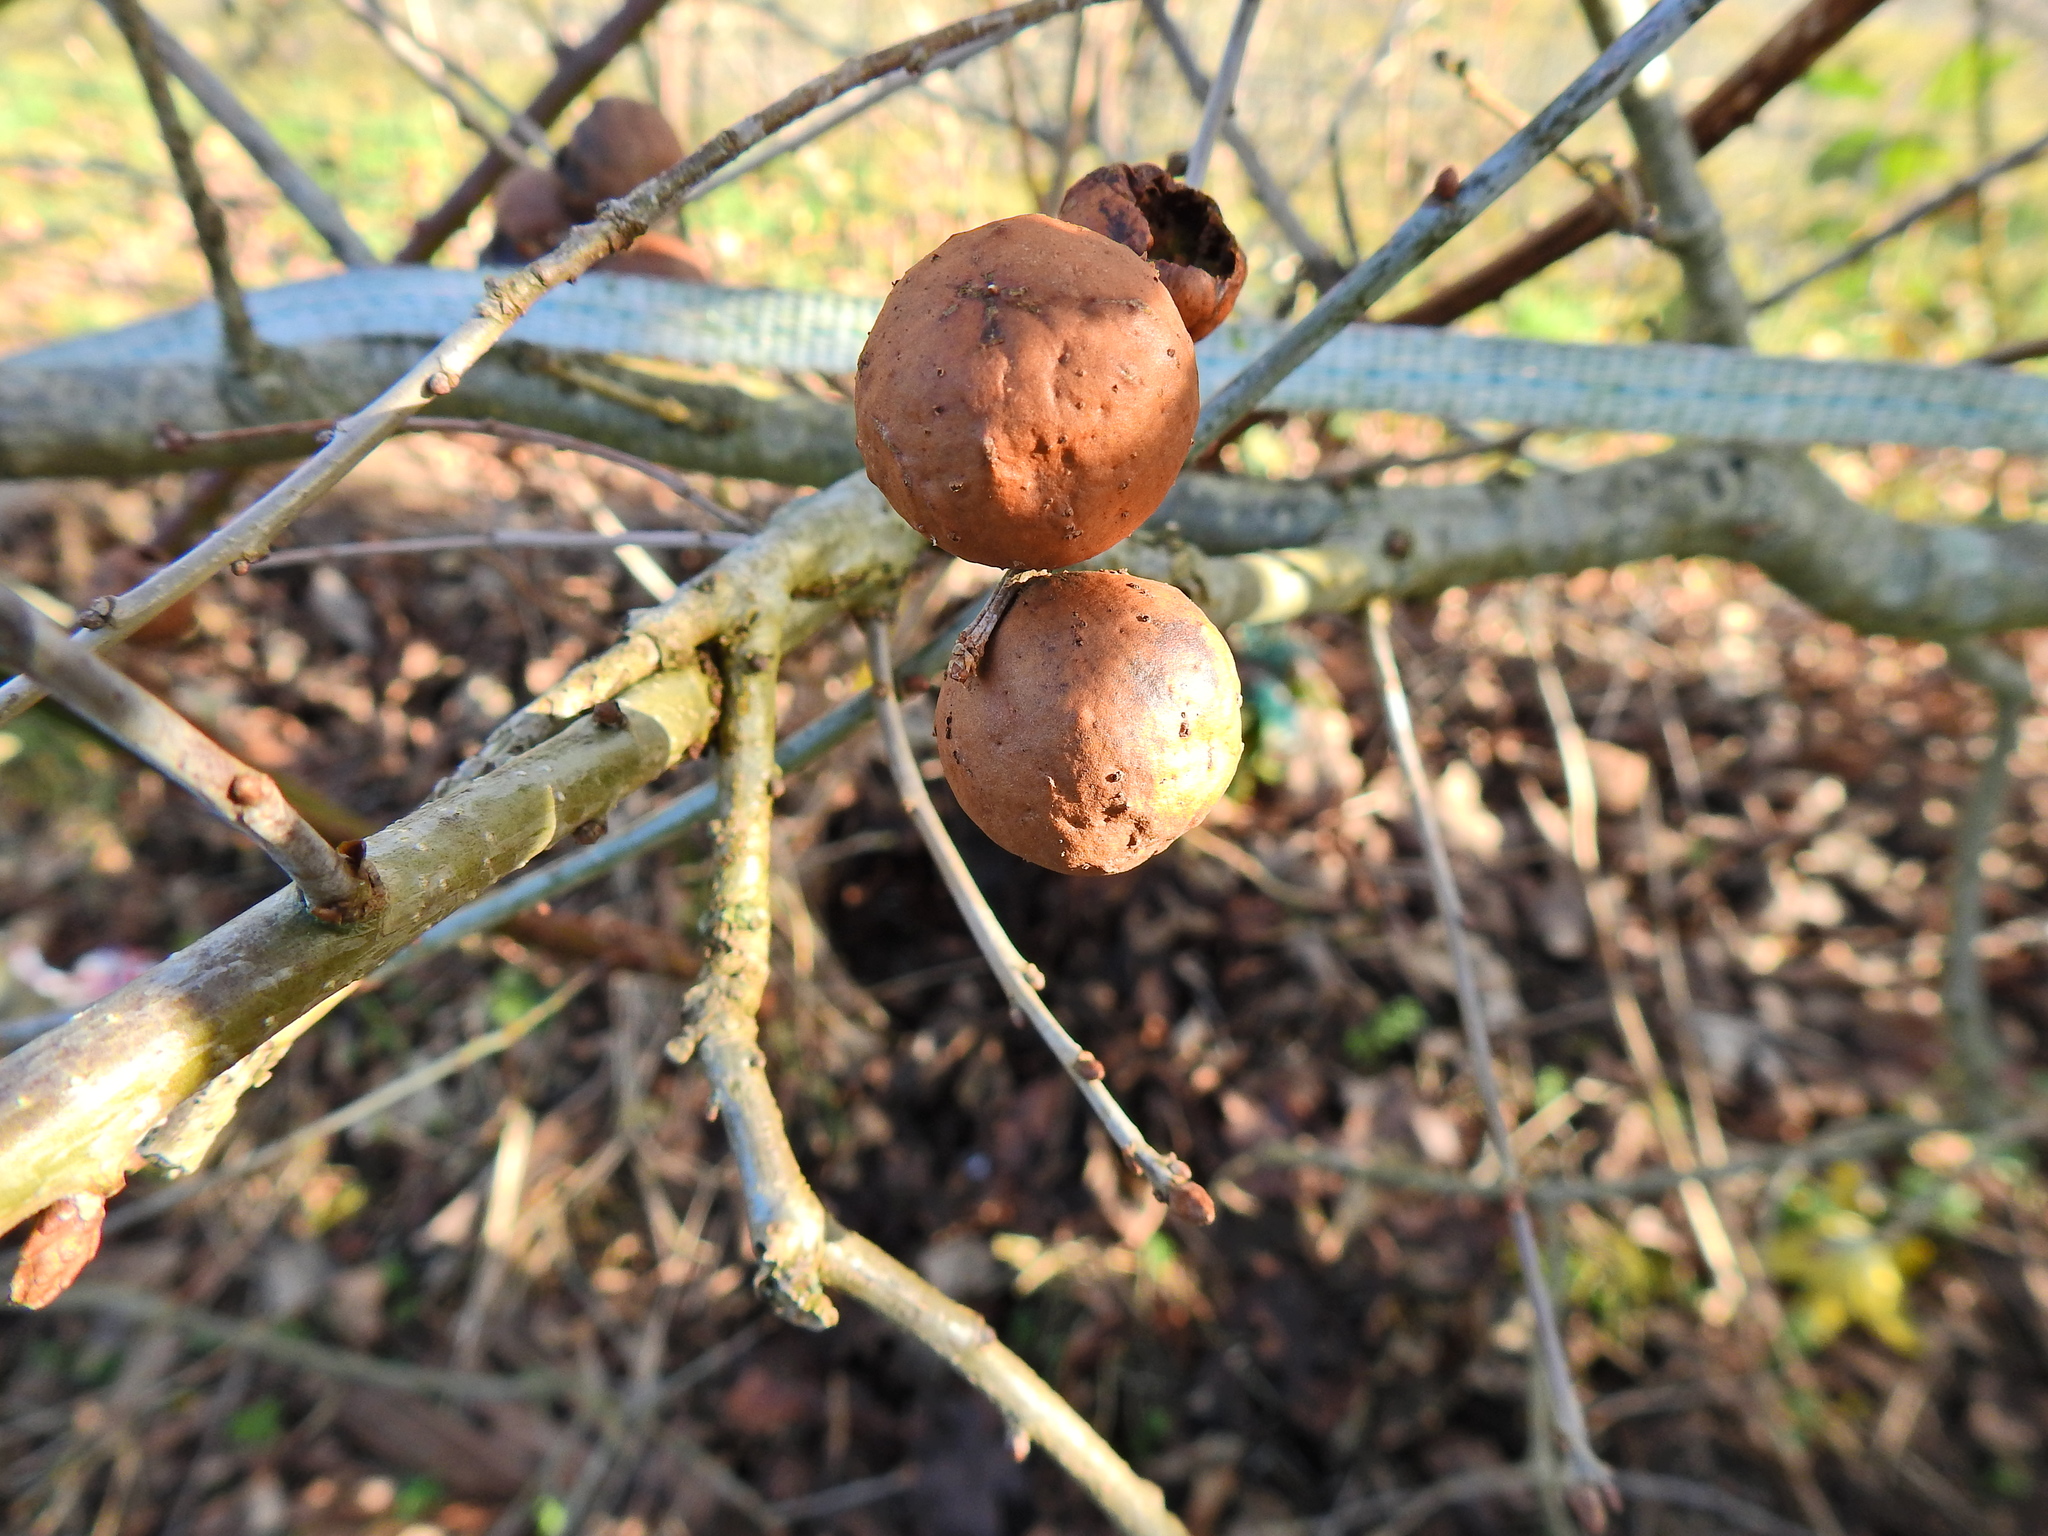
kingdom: Animalia
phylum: Arthropoda
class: Insecta
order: Hymenoptera
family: Cynipidae
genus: Andricus
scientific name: Andricus kollari
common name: Marble gall
